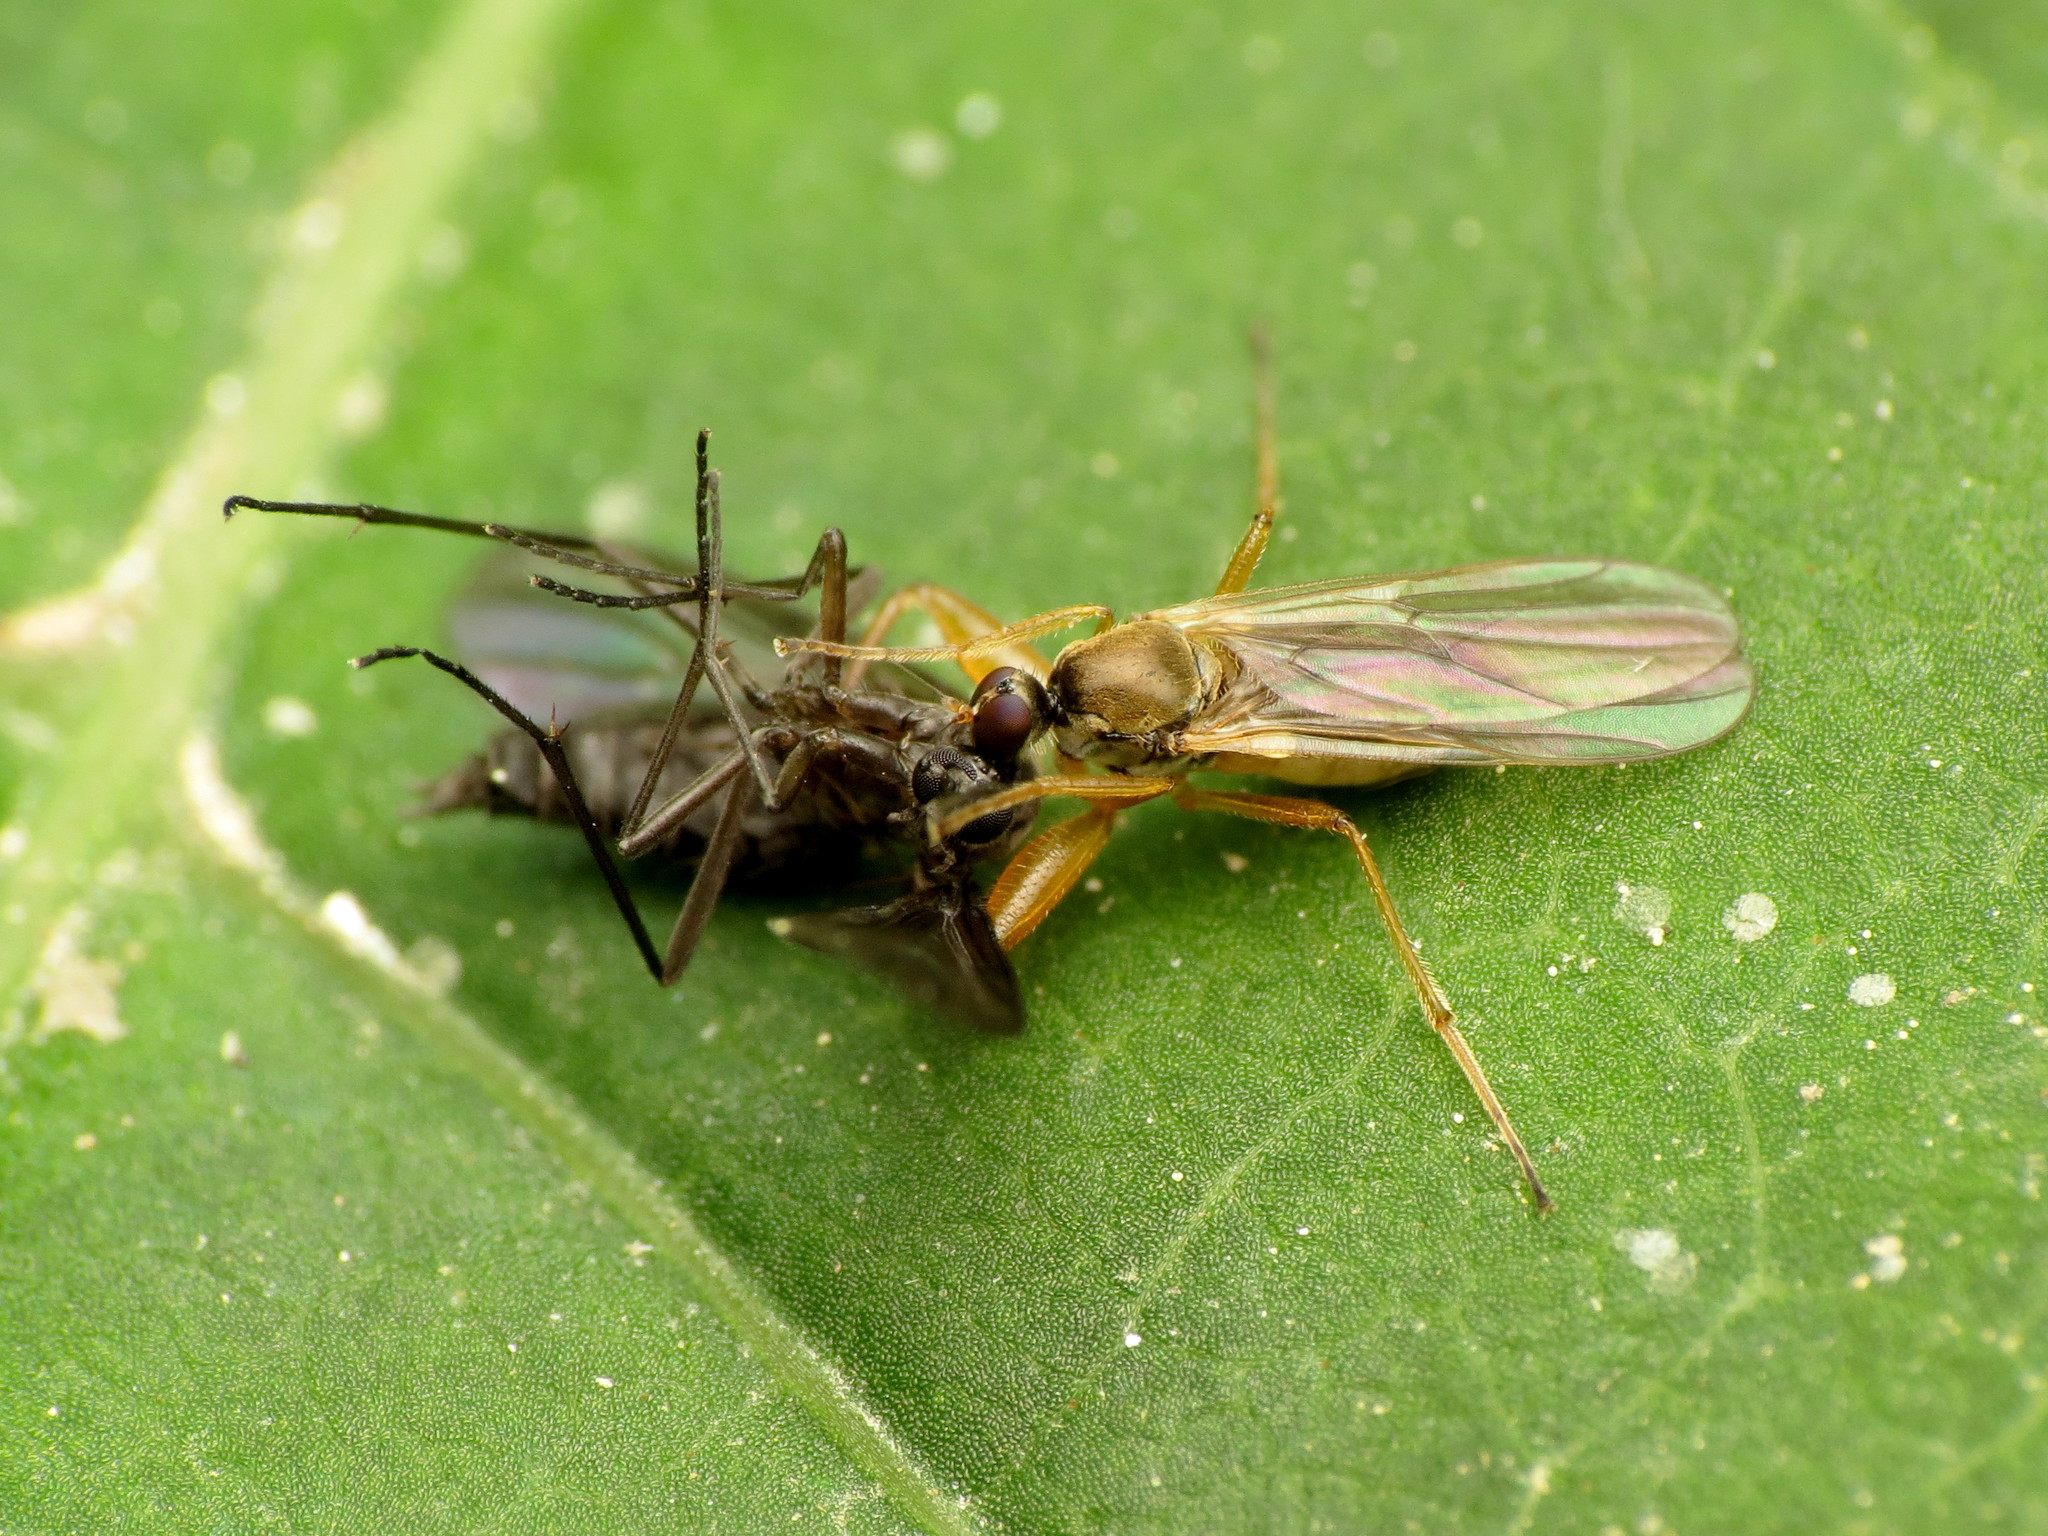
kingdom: Animalia
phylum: Arthropoda
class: Insecta
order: Diptera
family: Hybotidae
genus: Platypalpus
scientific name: Platypalpus discifer
